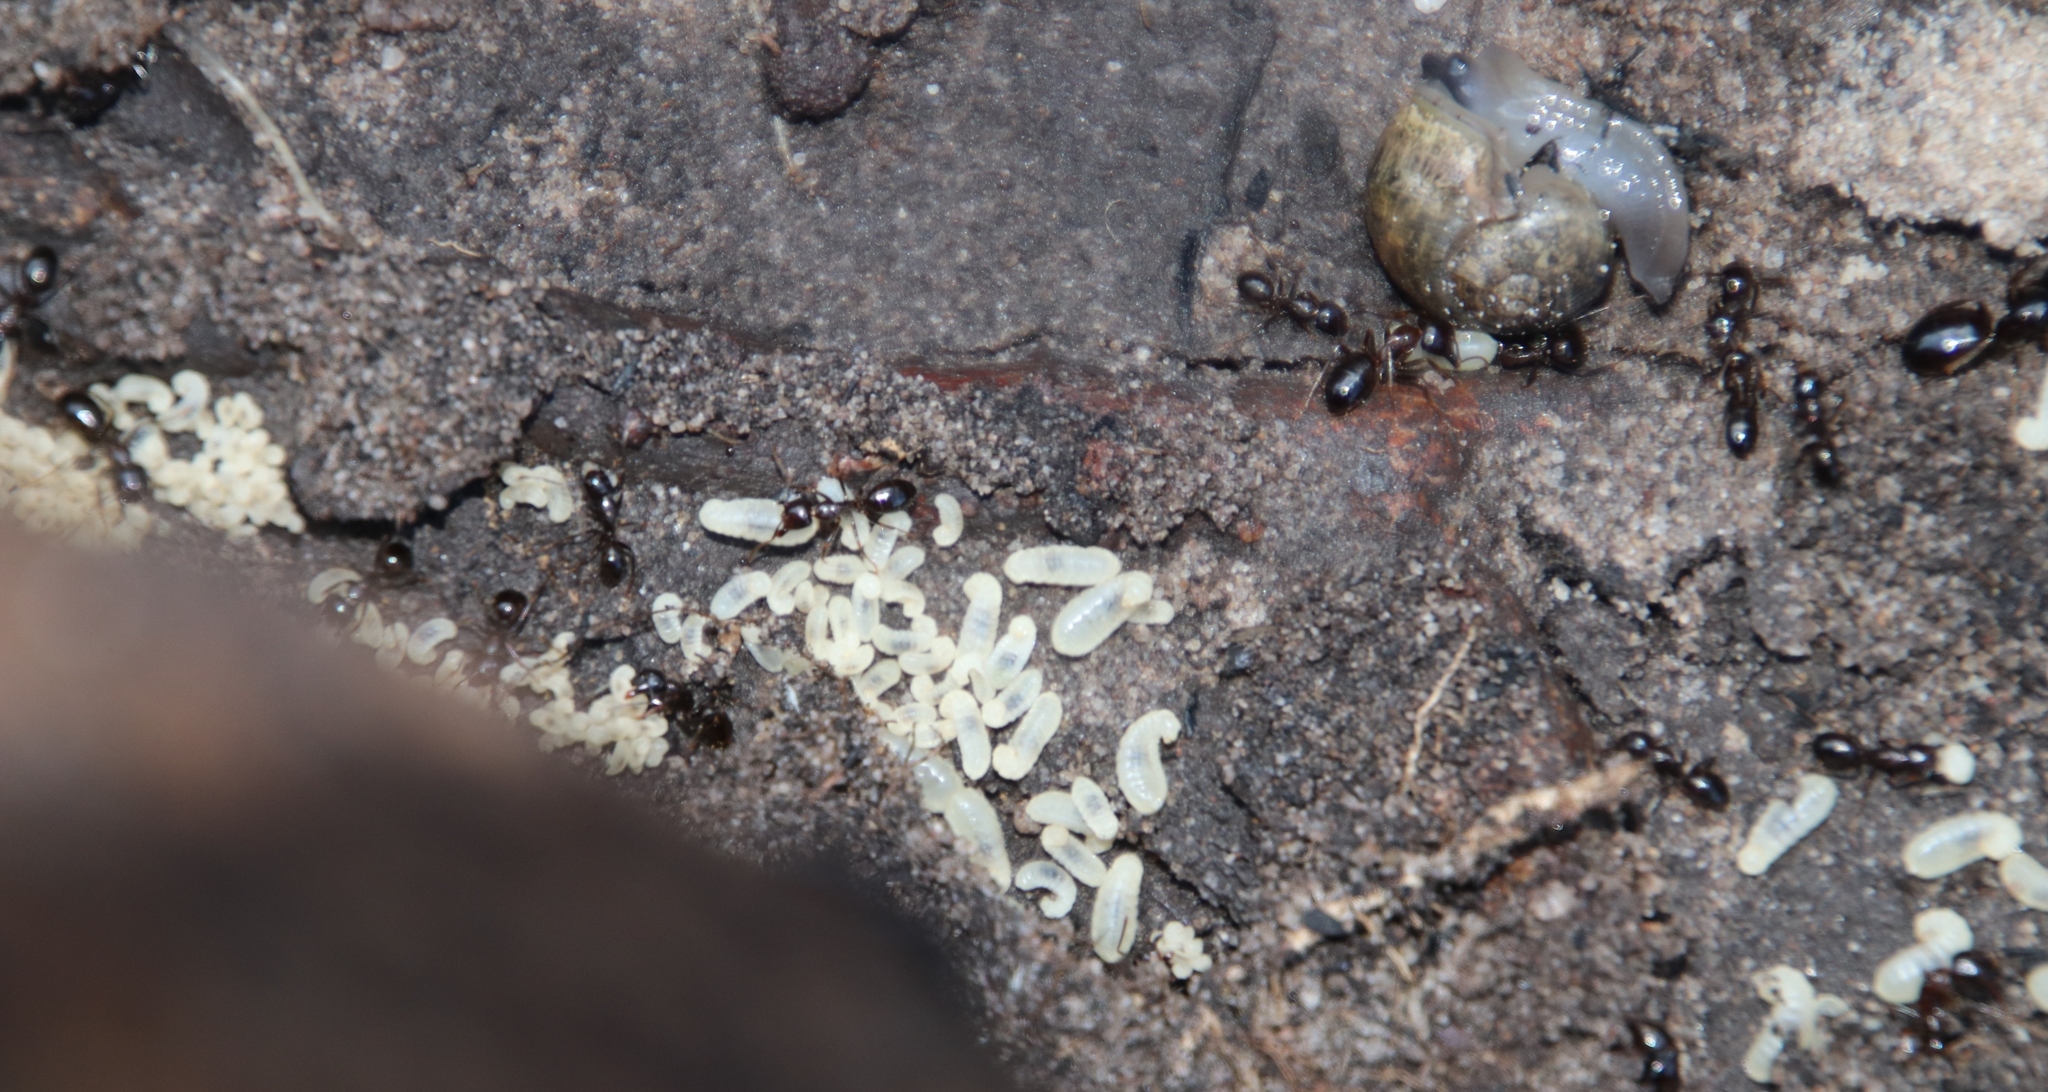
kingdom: Animalia
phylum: Arthropoda
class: Insecta
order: Hymenoptera
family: Formicidae
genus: Camponotus
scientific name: Camponotus empedocles
